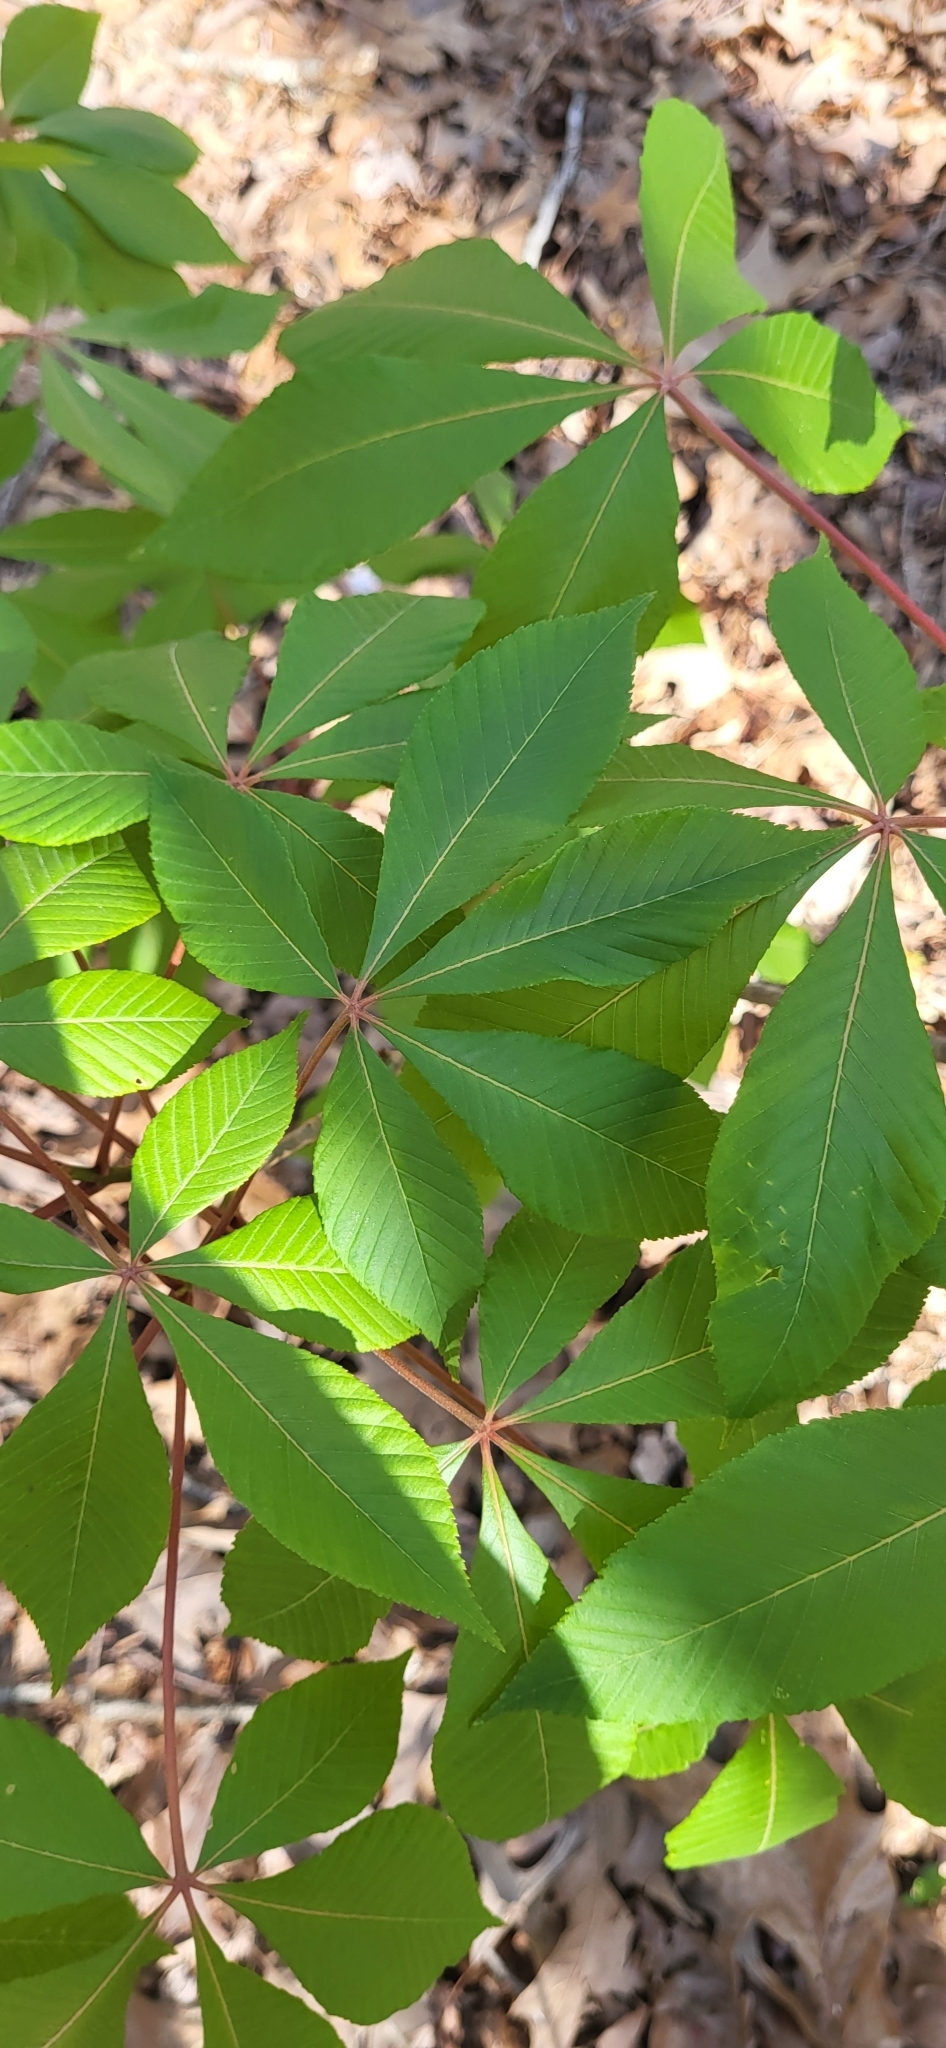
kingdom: Plantae
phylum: Tracheophyta
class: Magnoliopsida
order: Sapindales
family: Sapindaceae
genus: Aesculus
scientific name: Aesculus pavia
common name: Red buckeye
